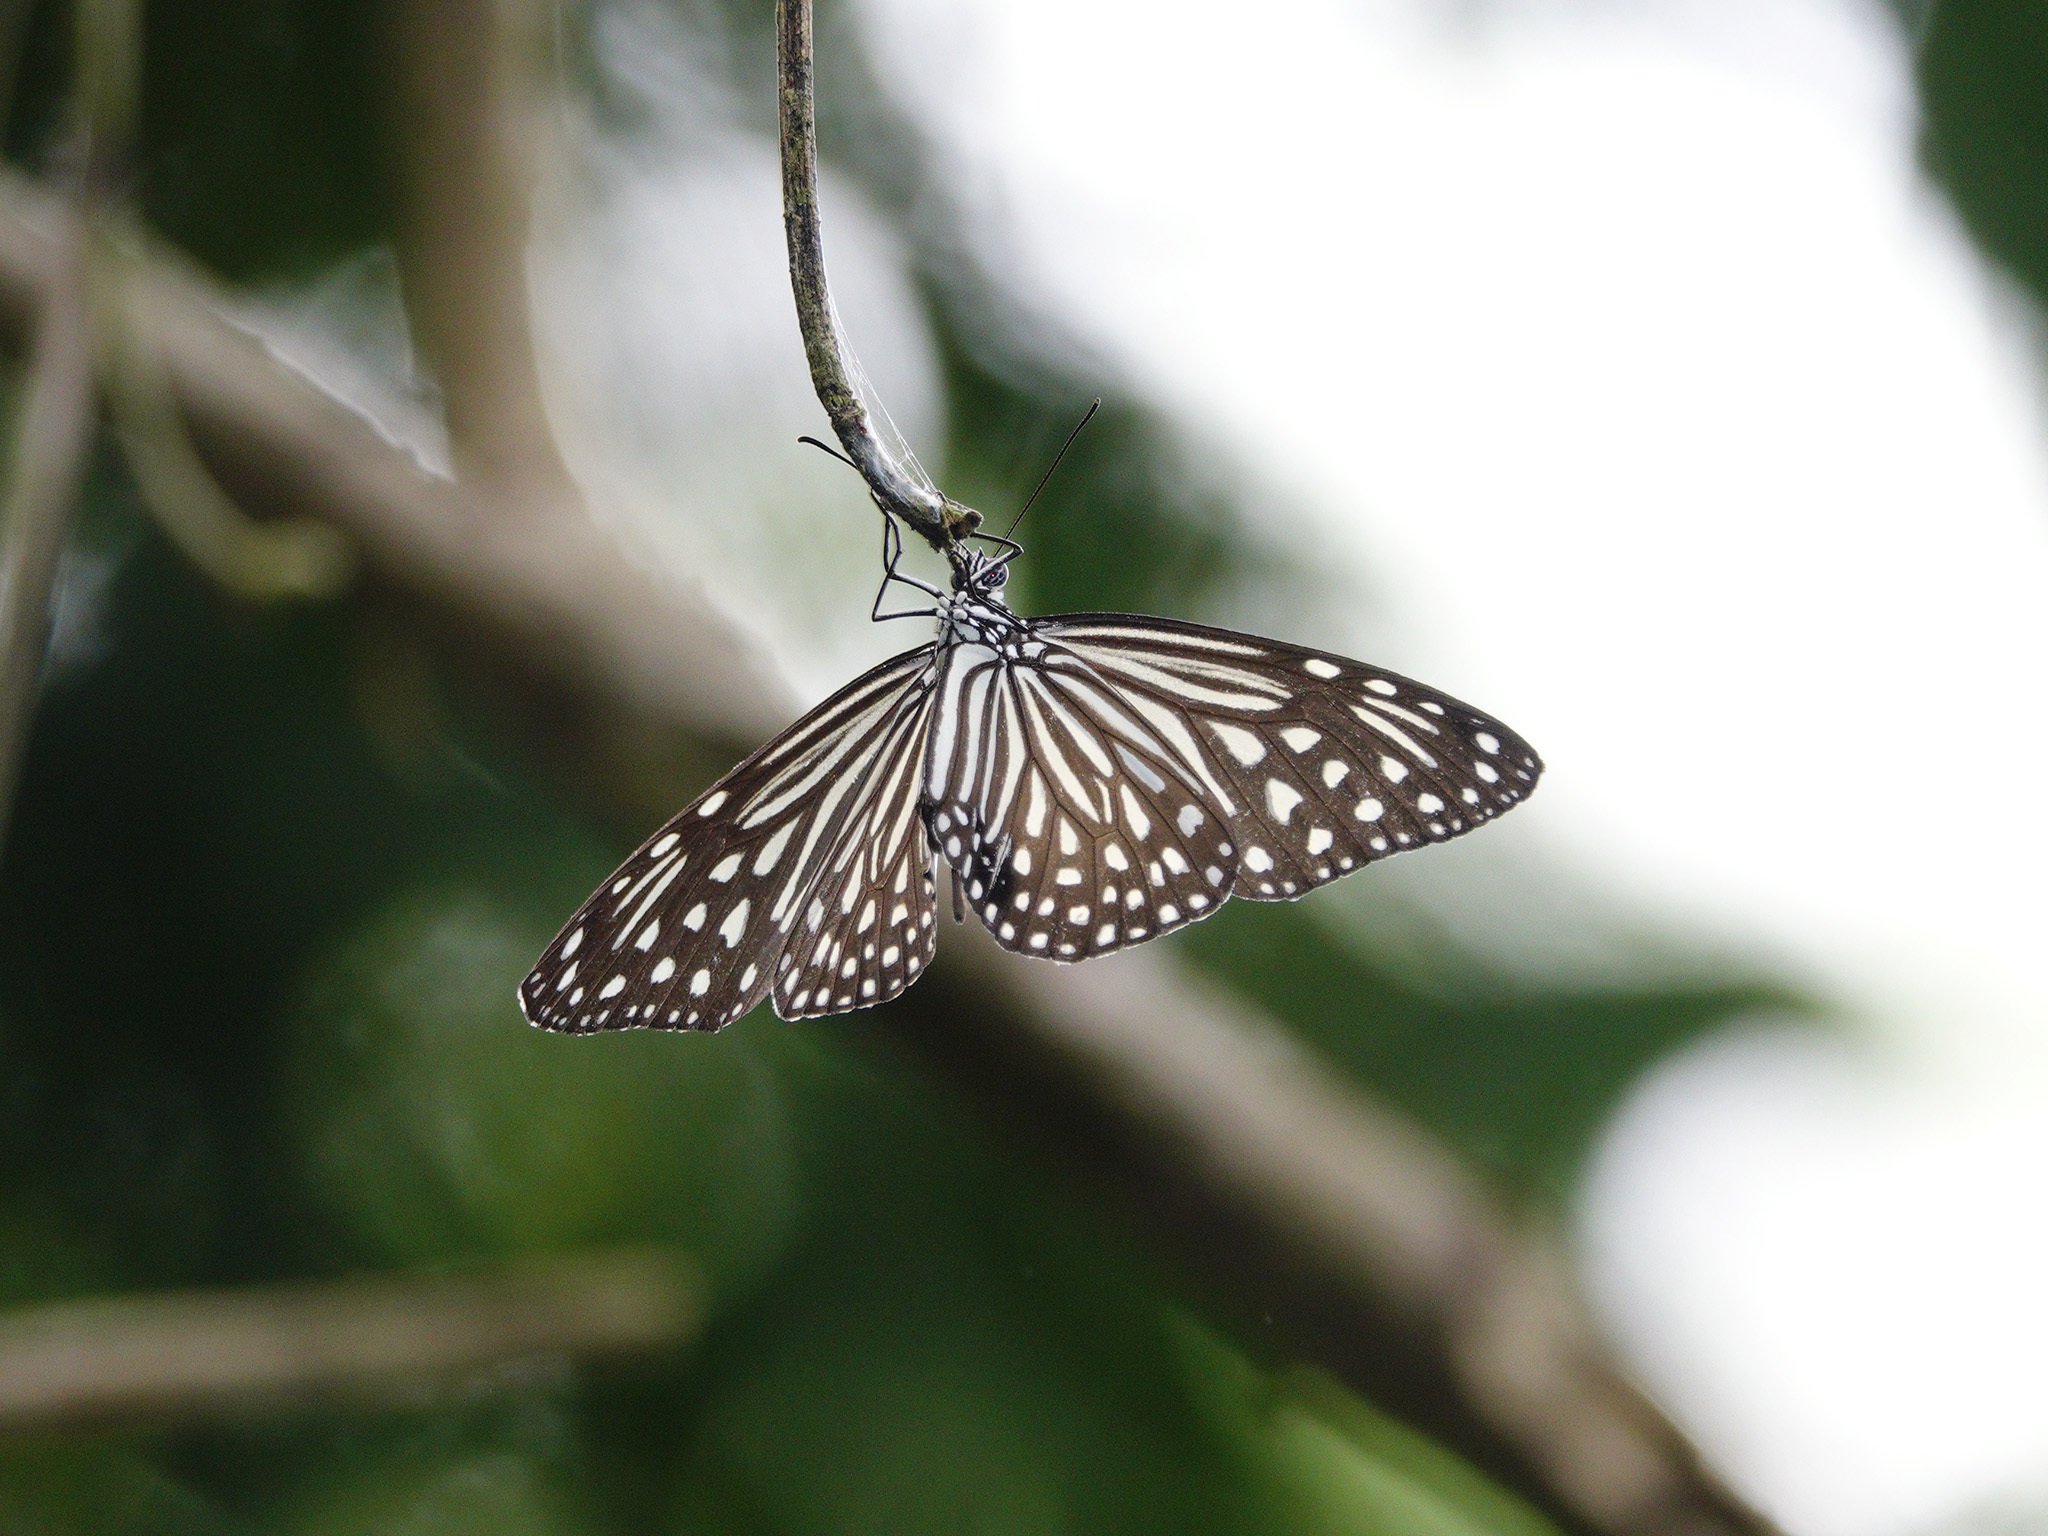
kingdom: Animalia
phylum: Arthropoda
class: Insecta
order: Lepidoptera
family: Nymphalidae
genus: Parantica
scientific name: Parantica agleoides
